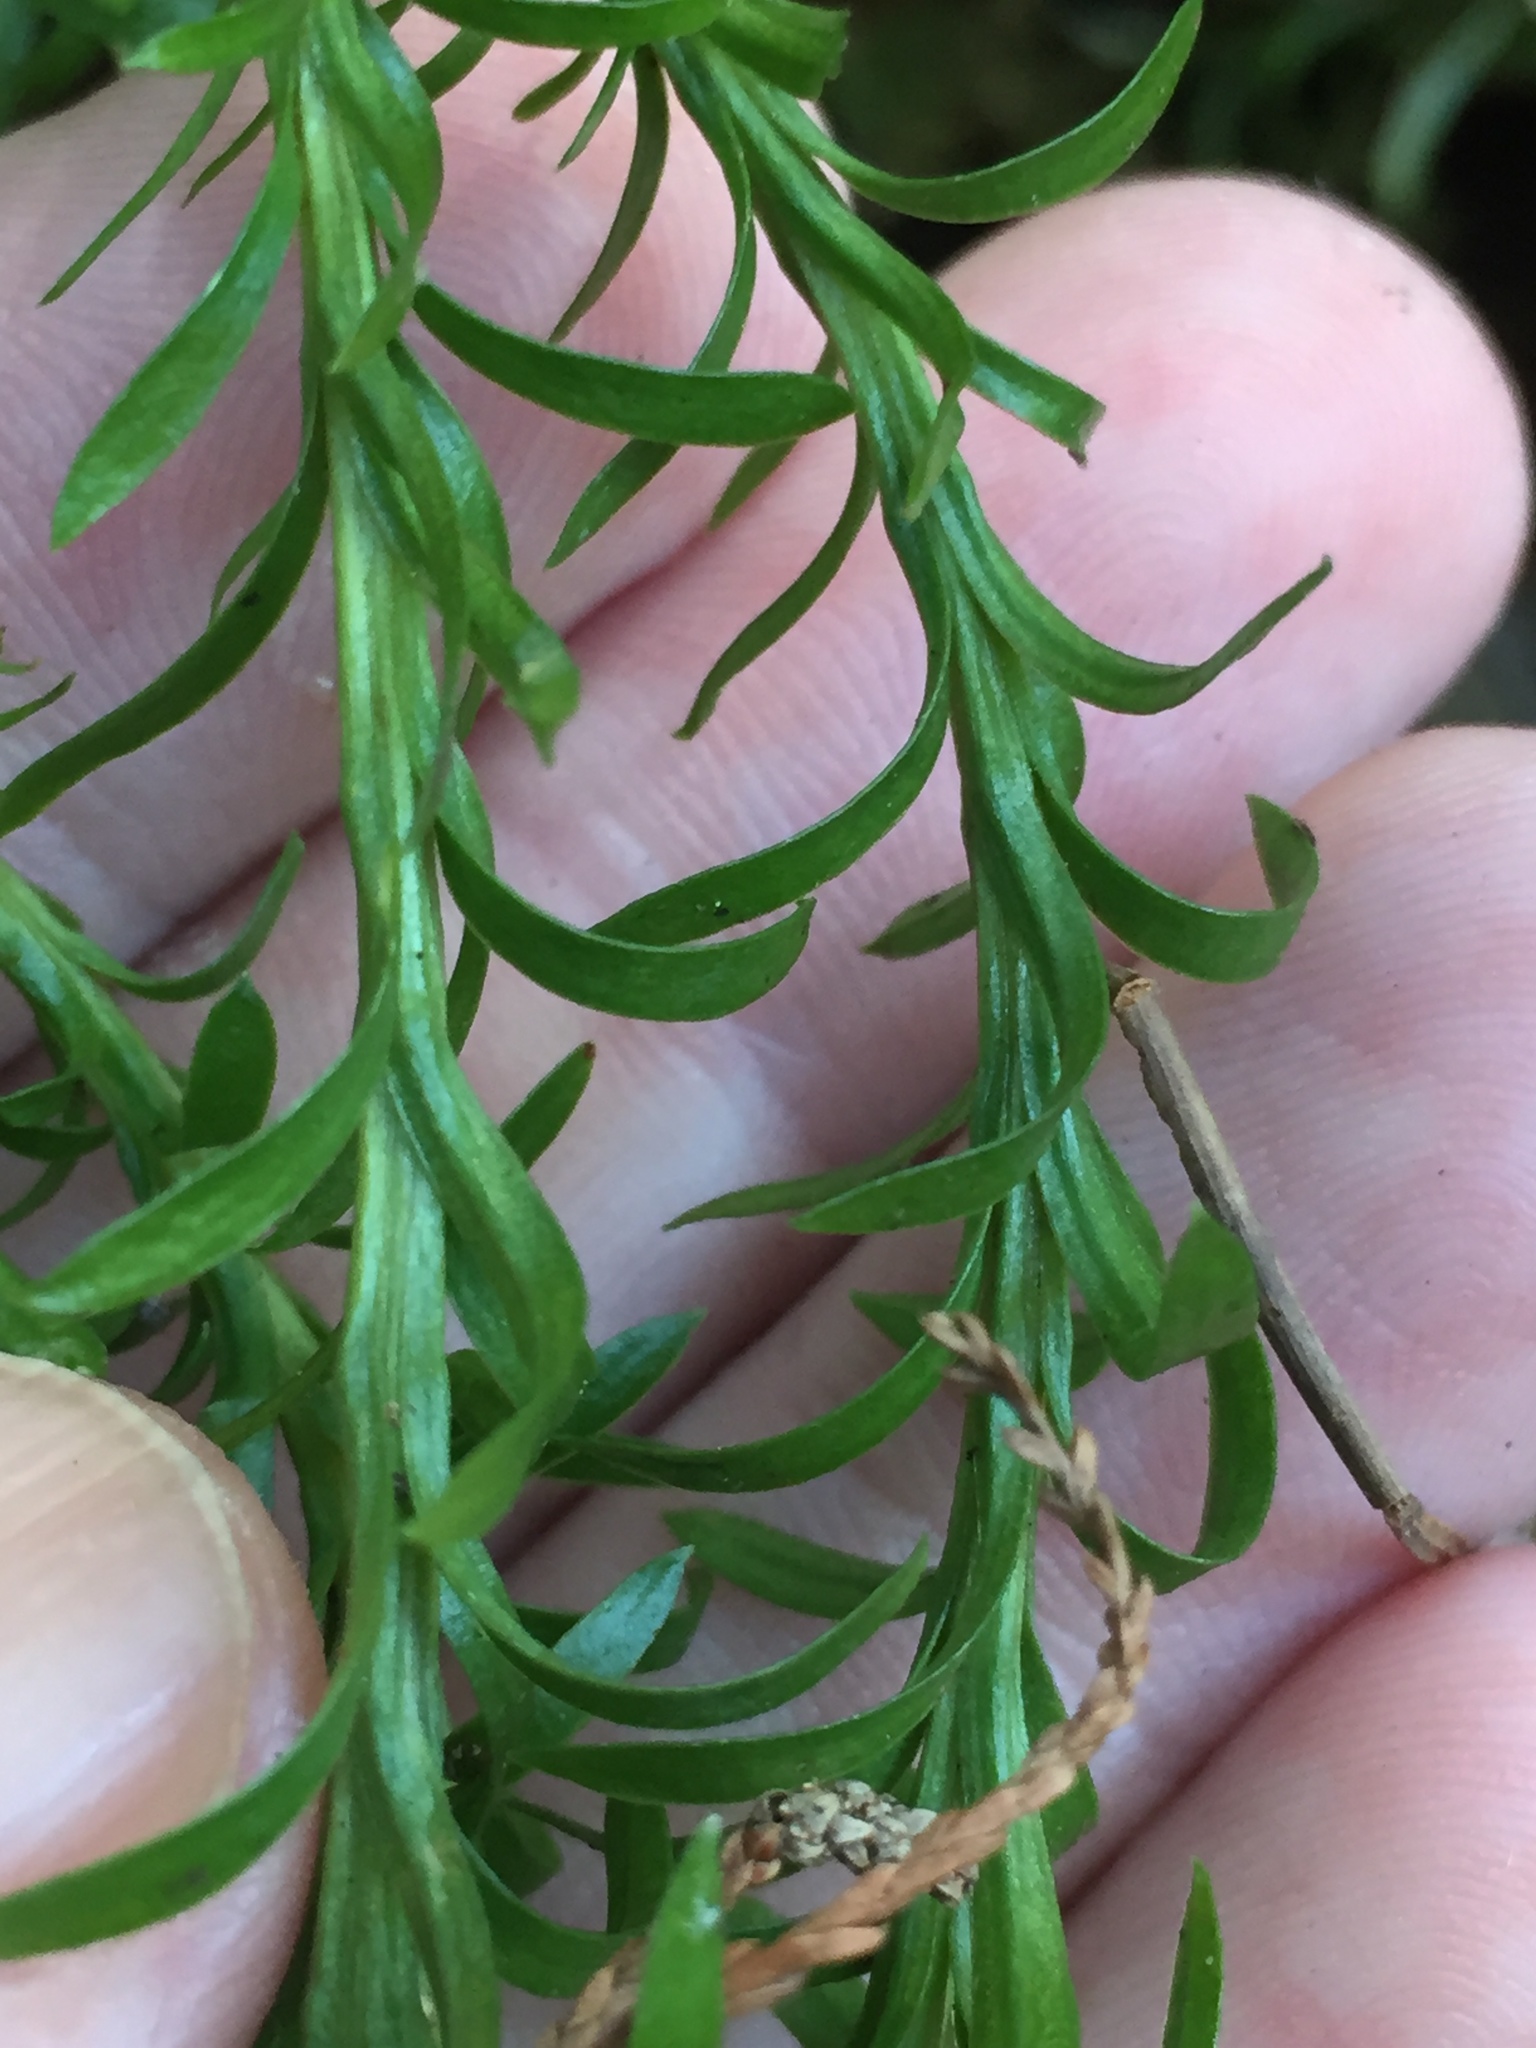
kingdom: Plantae
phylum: Tracheophyta
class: Lycopodiopsida
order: Lycopodiales
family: Lycopodiaceae
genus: Phlegmariurus
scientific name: Phlegmariurus
